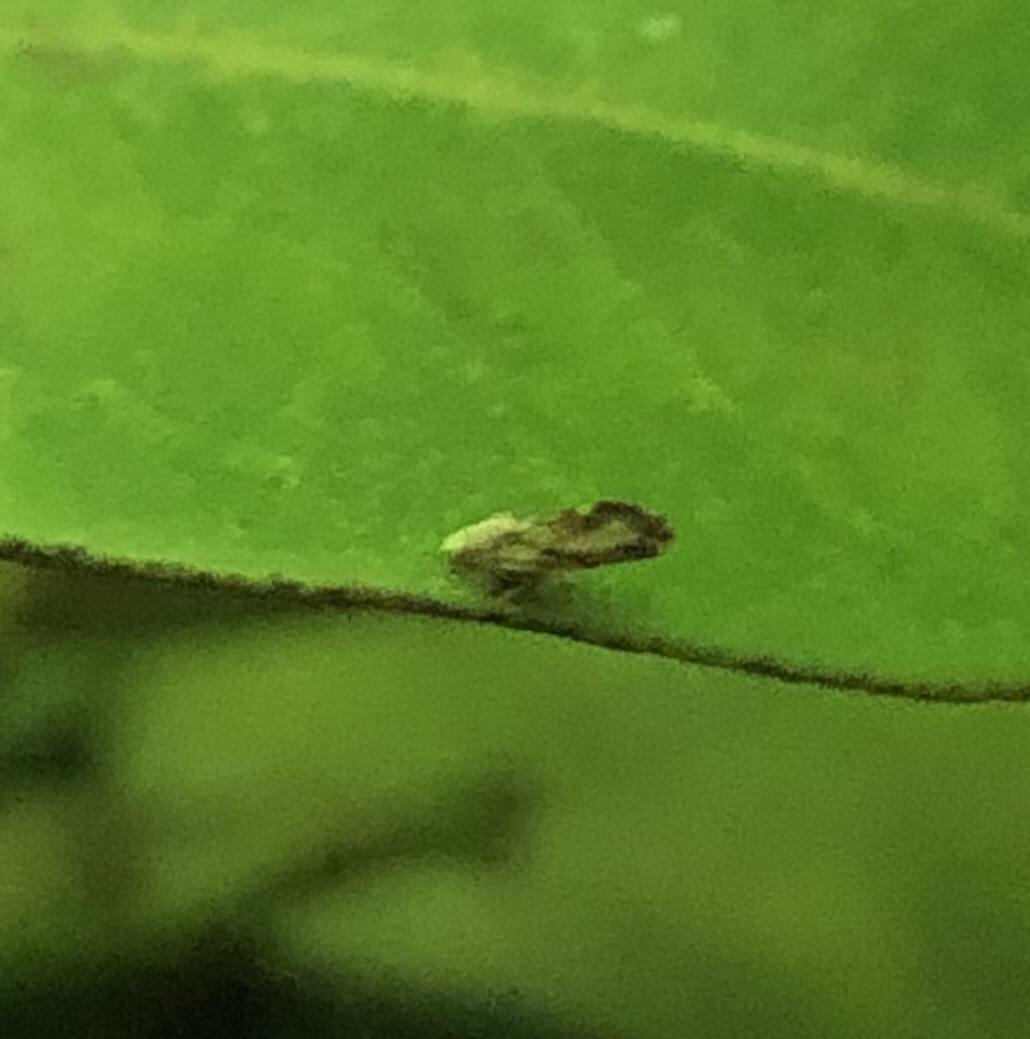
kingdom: Animalia
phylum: Arthropoda
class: Insecta
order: Hemiptera
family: Liviidae
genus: Diaphorina
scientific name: Diaphorina citri
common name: Asian citrus psyllid
